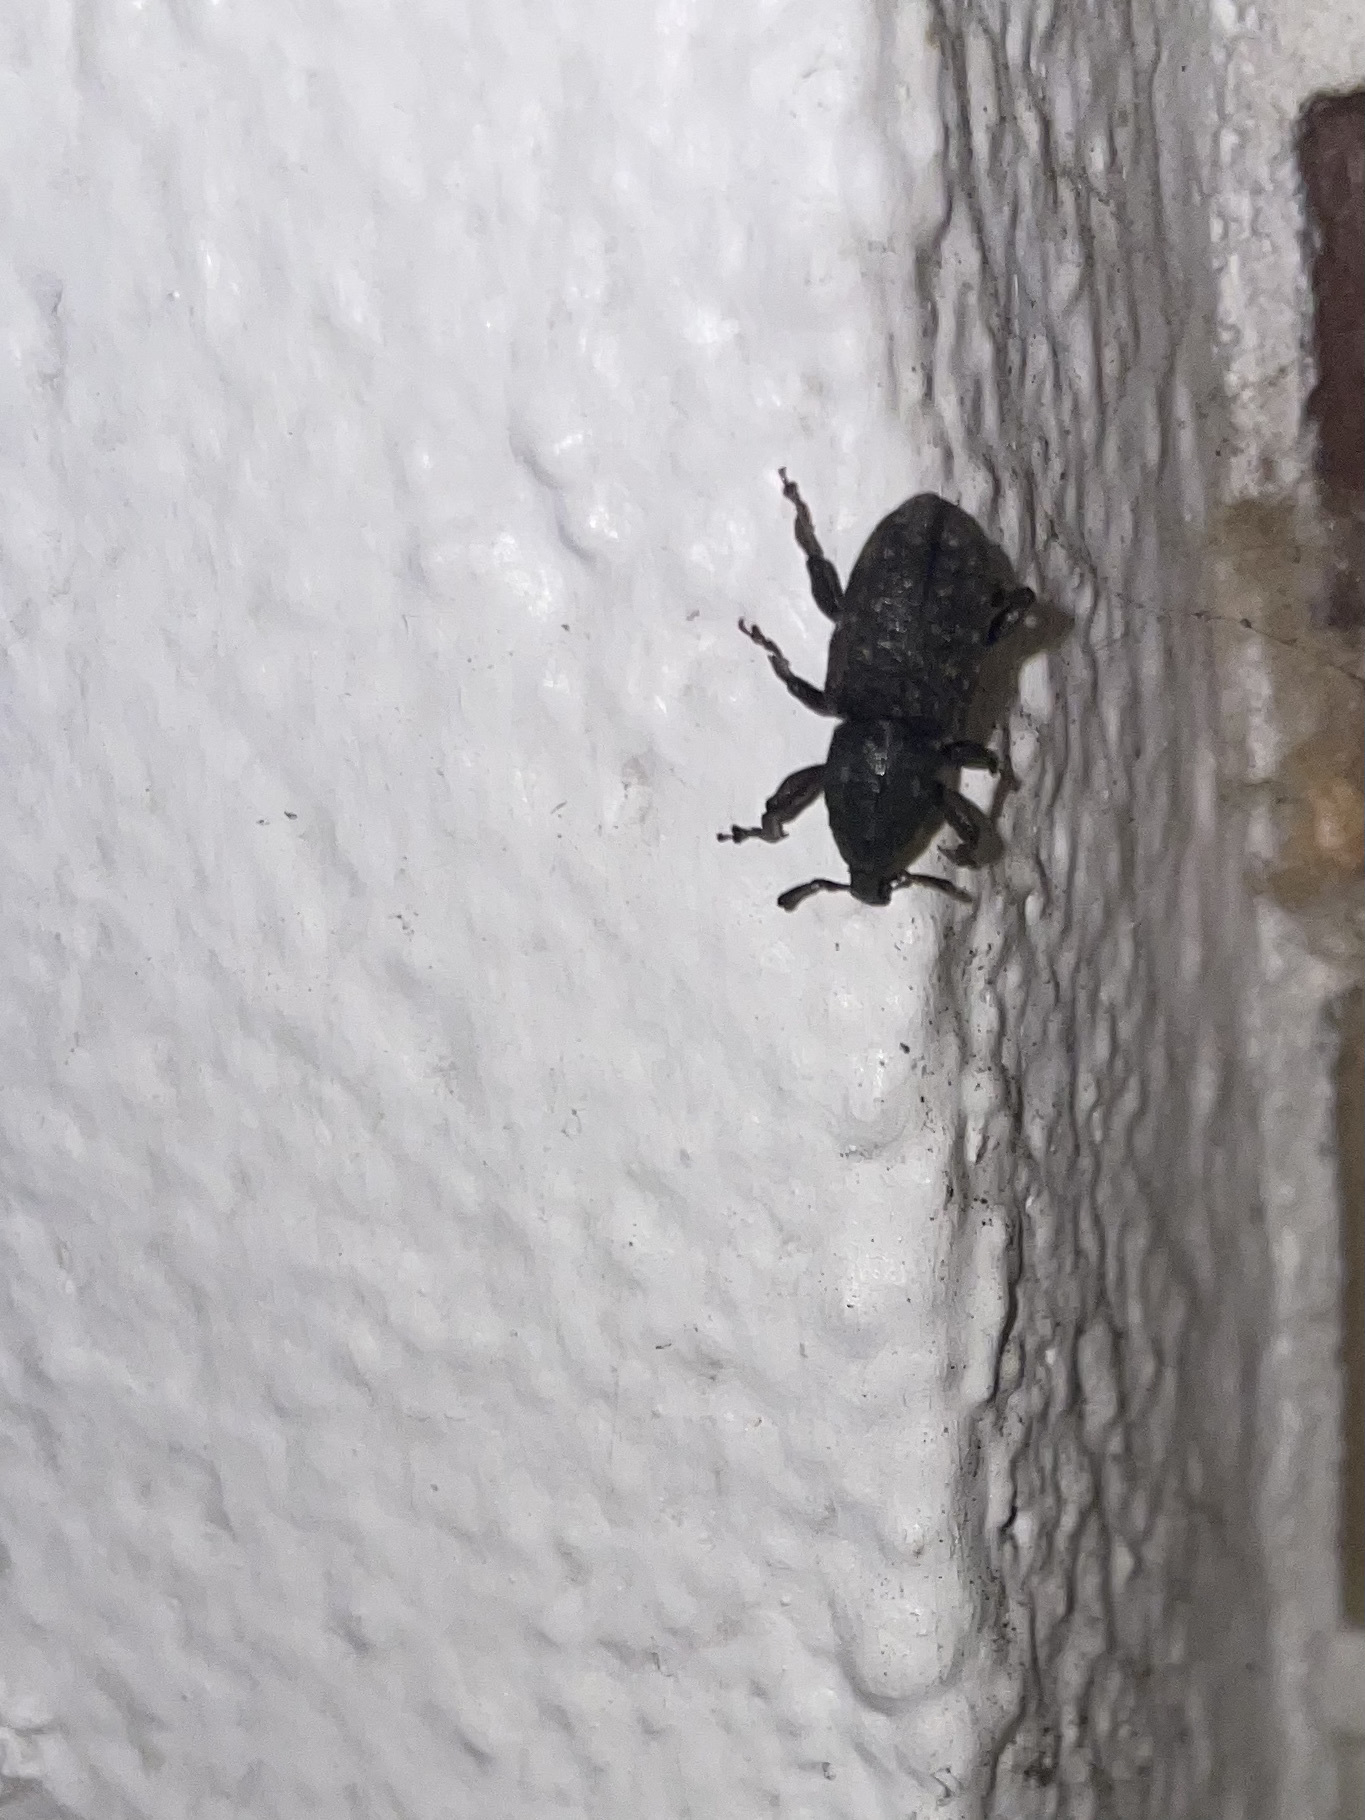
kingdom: Animalia
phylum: Arthropoda
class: Insecta
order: Coleoptera
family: Curculionidae
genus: Pachylobius
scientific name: Pachylobius picivorus
